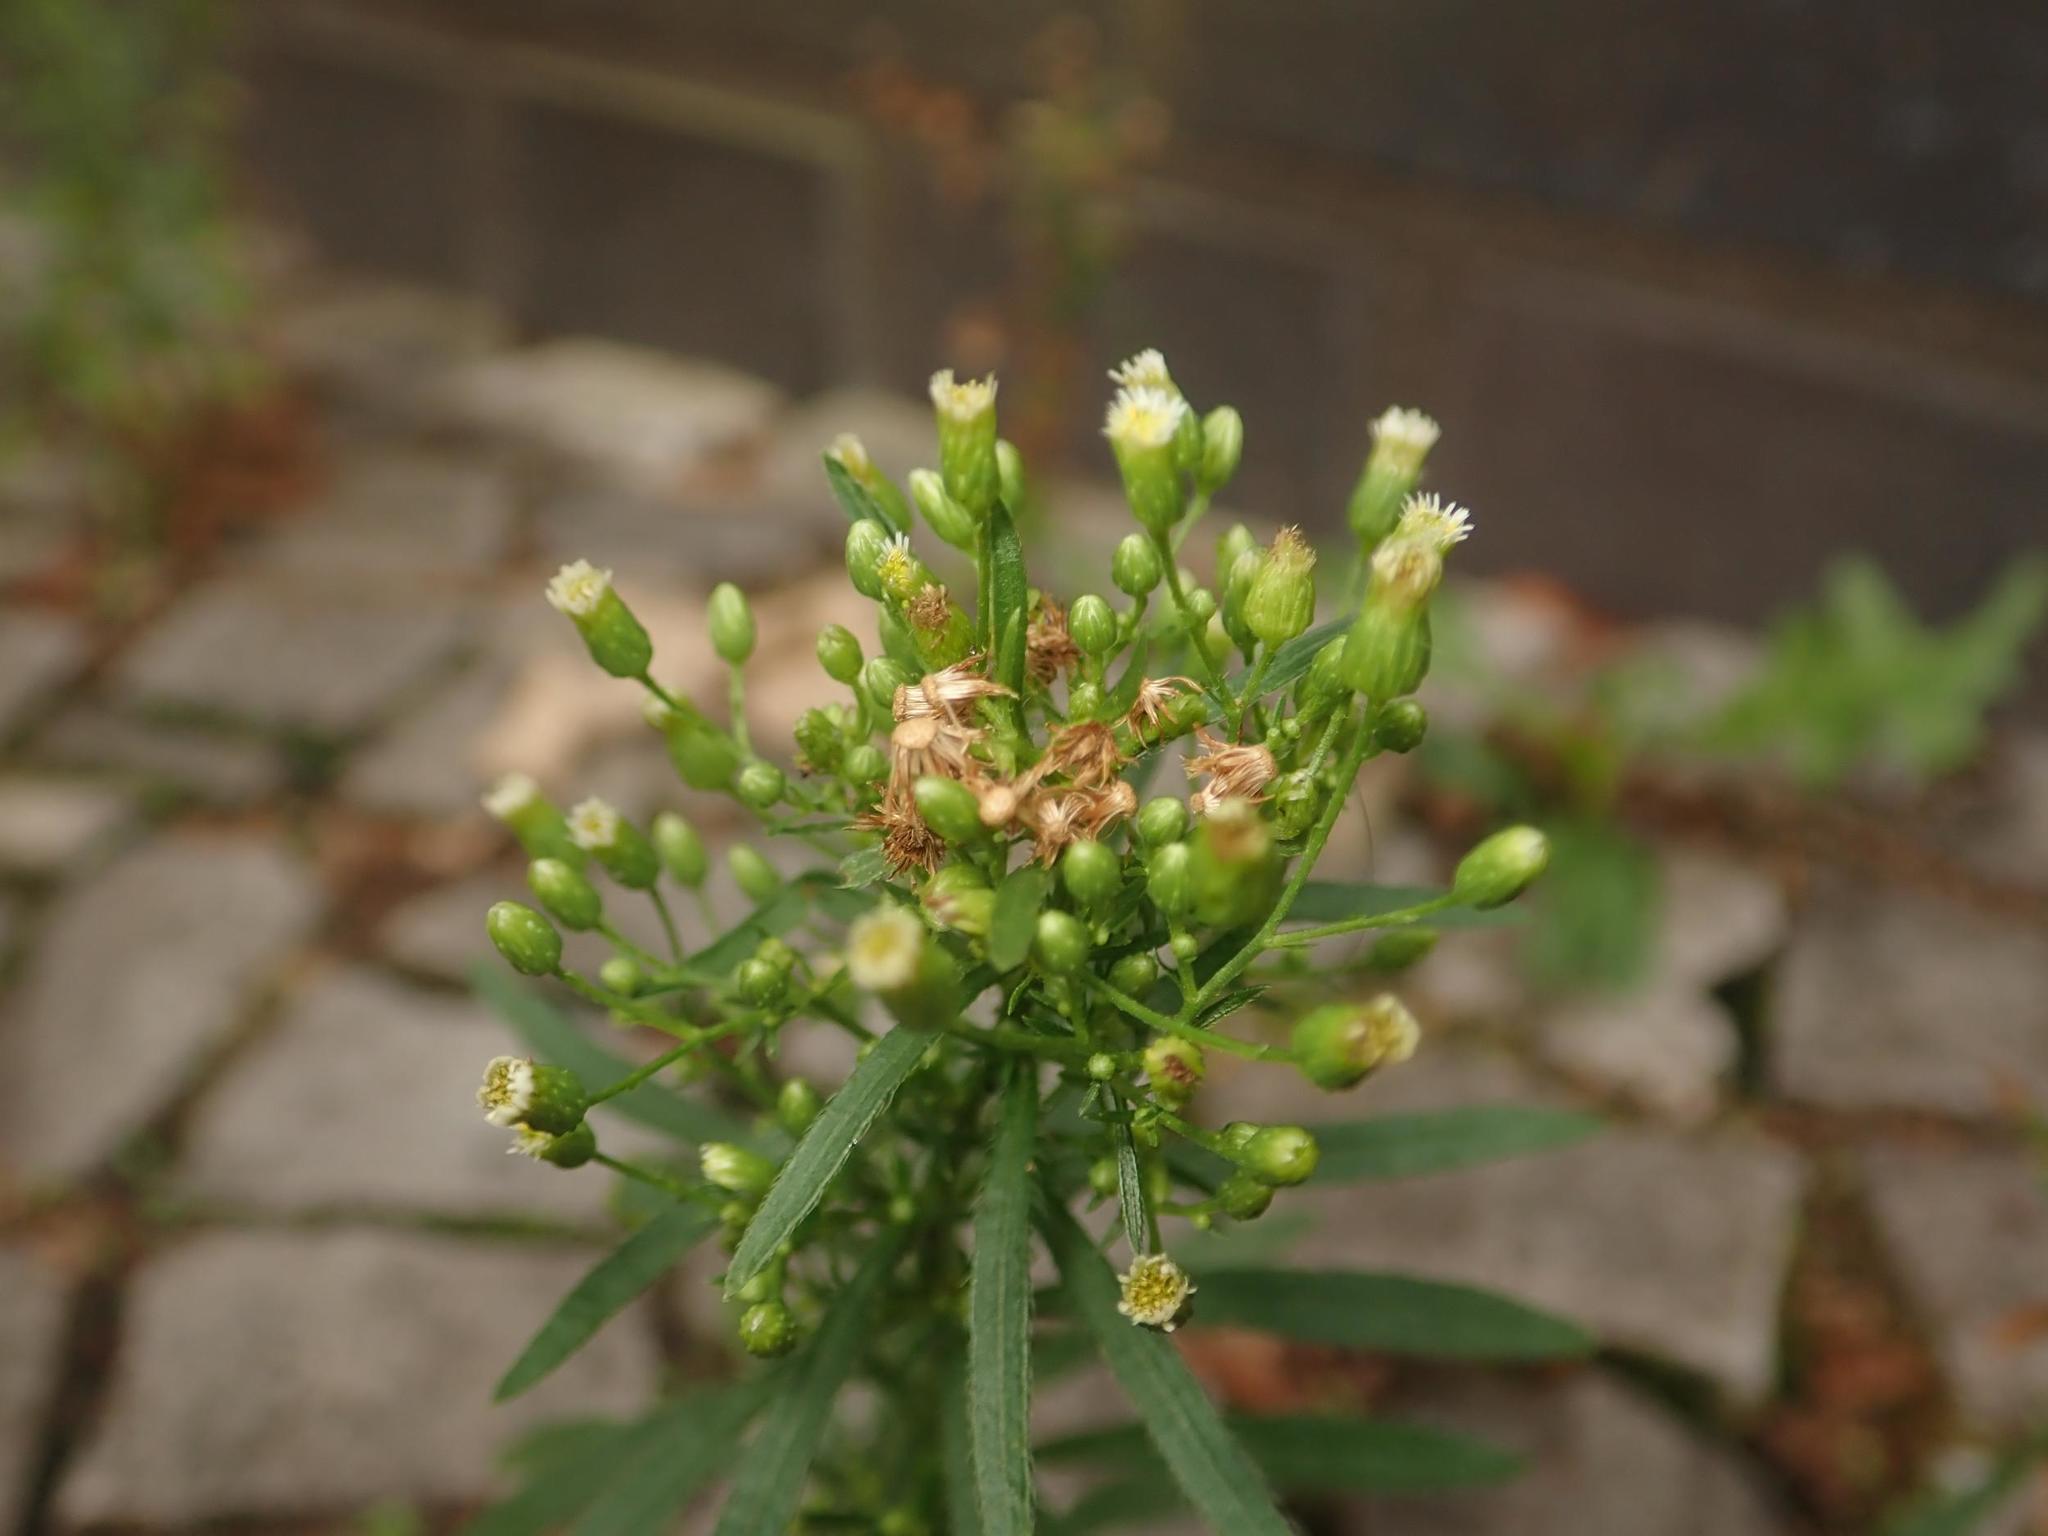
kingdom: Plantae
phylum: Tracheophyta
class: Magnoliopsida
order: Asterales
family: Asteraceae
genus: Erigeron
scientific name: Erigeron canadensis
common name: Canadian fleabane
